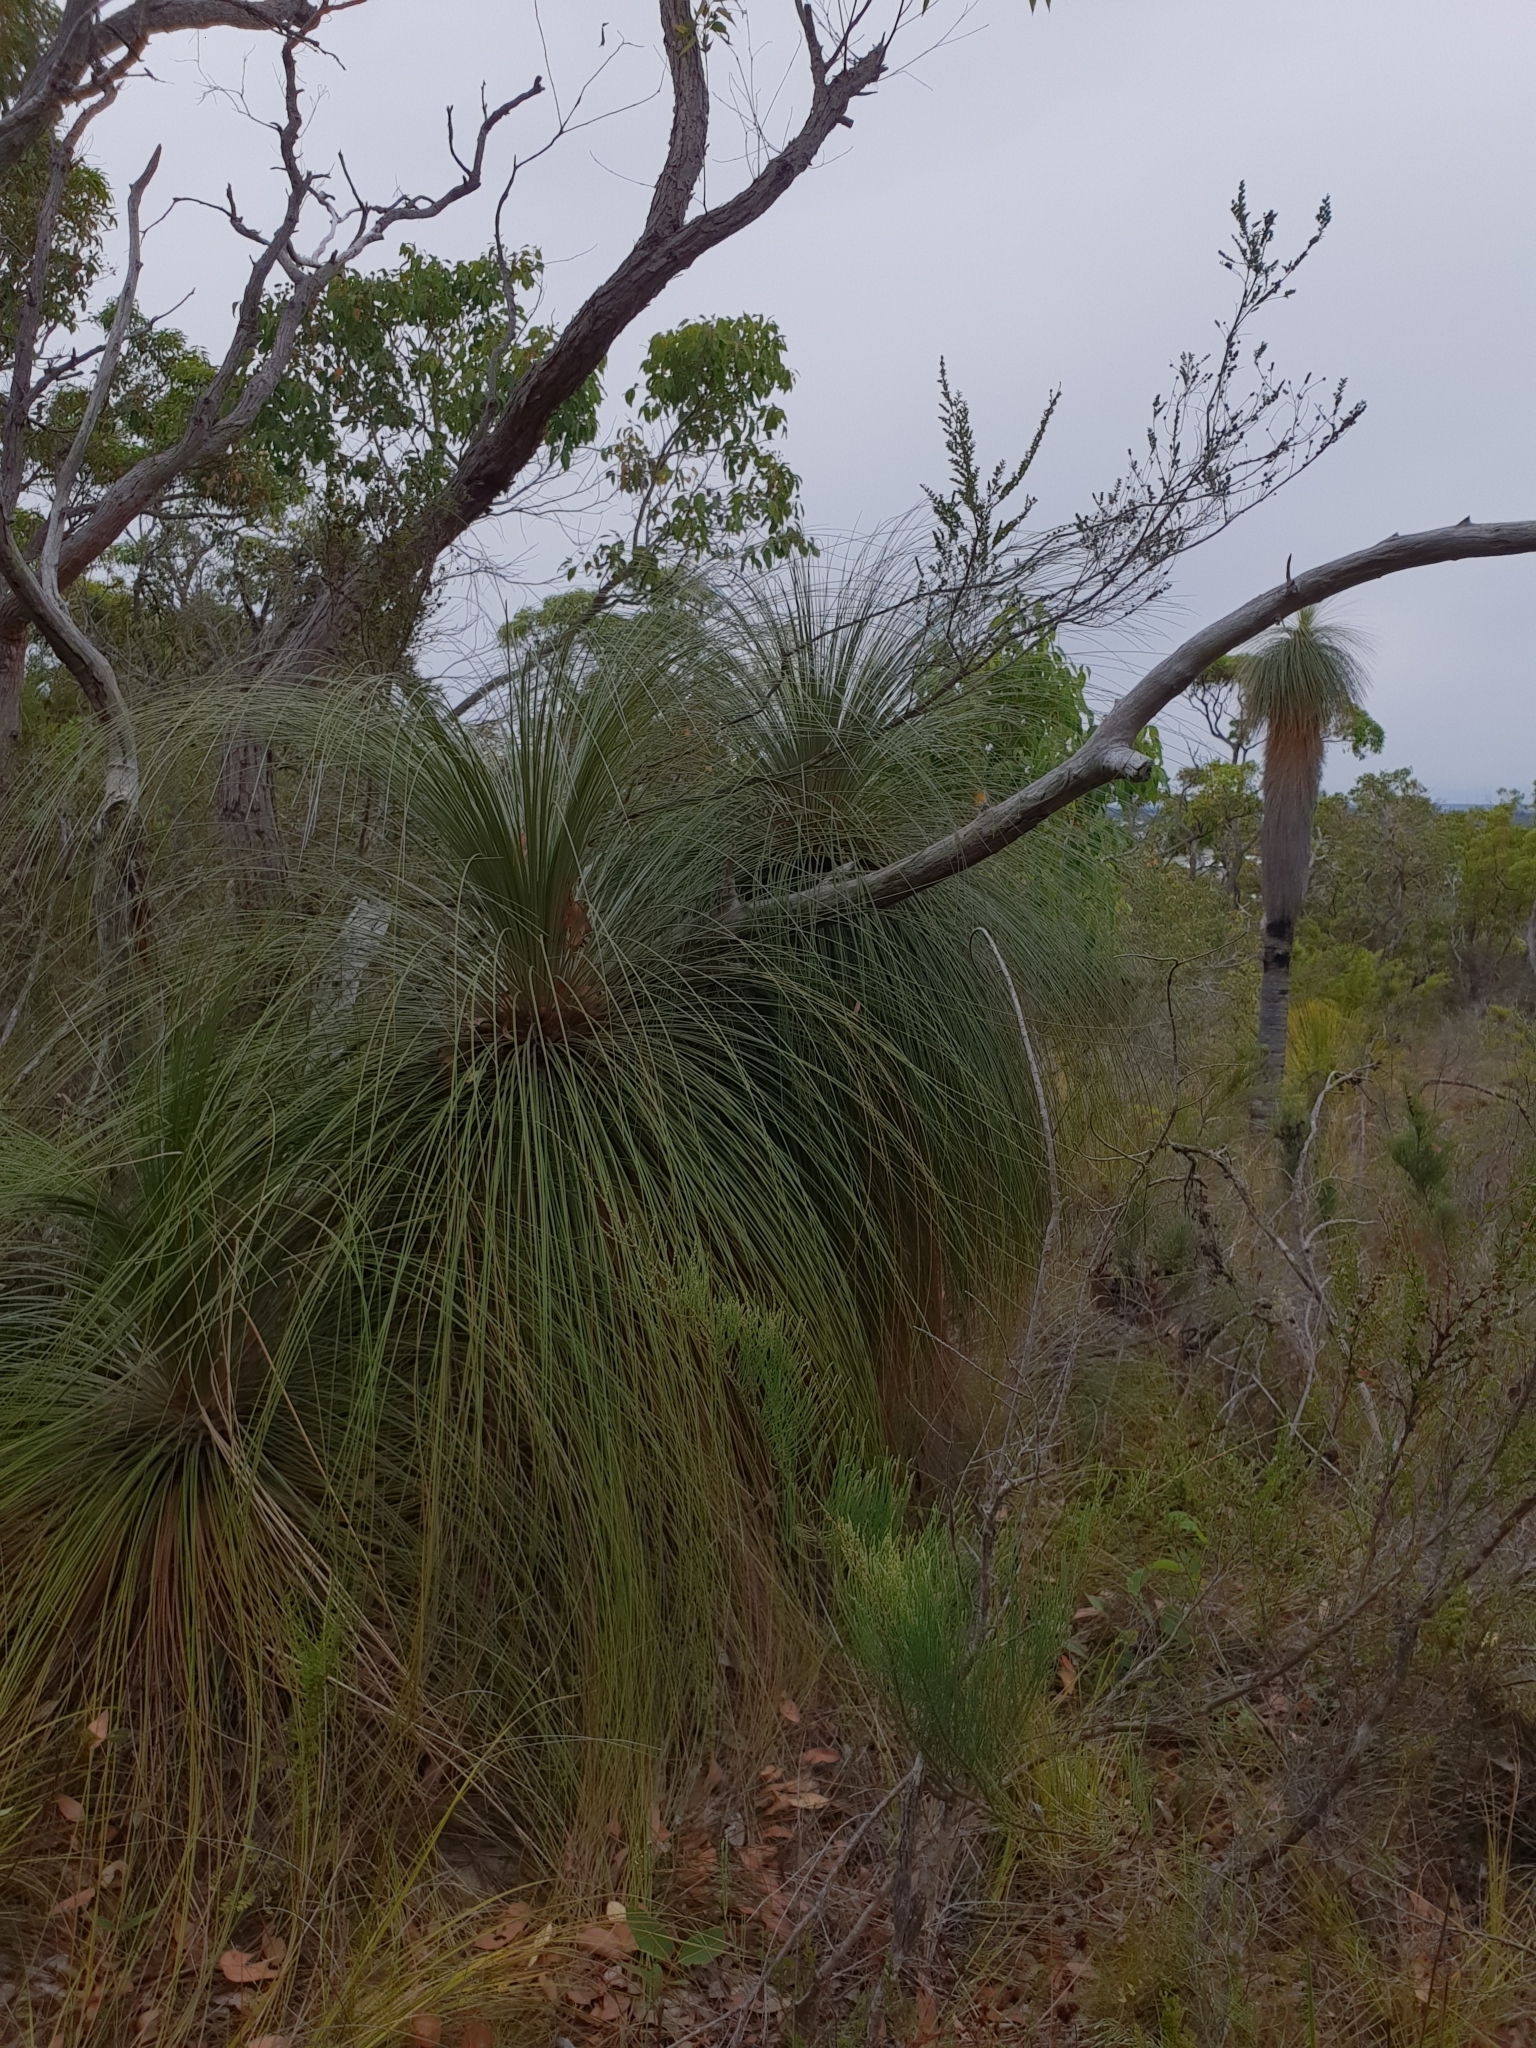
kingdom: Plantae
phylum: Tracheophyta
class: Liliopsida
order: Arecales
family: Dasypogonaceae
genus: Kingia
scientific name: Kingia australis
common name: Black gin
